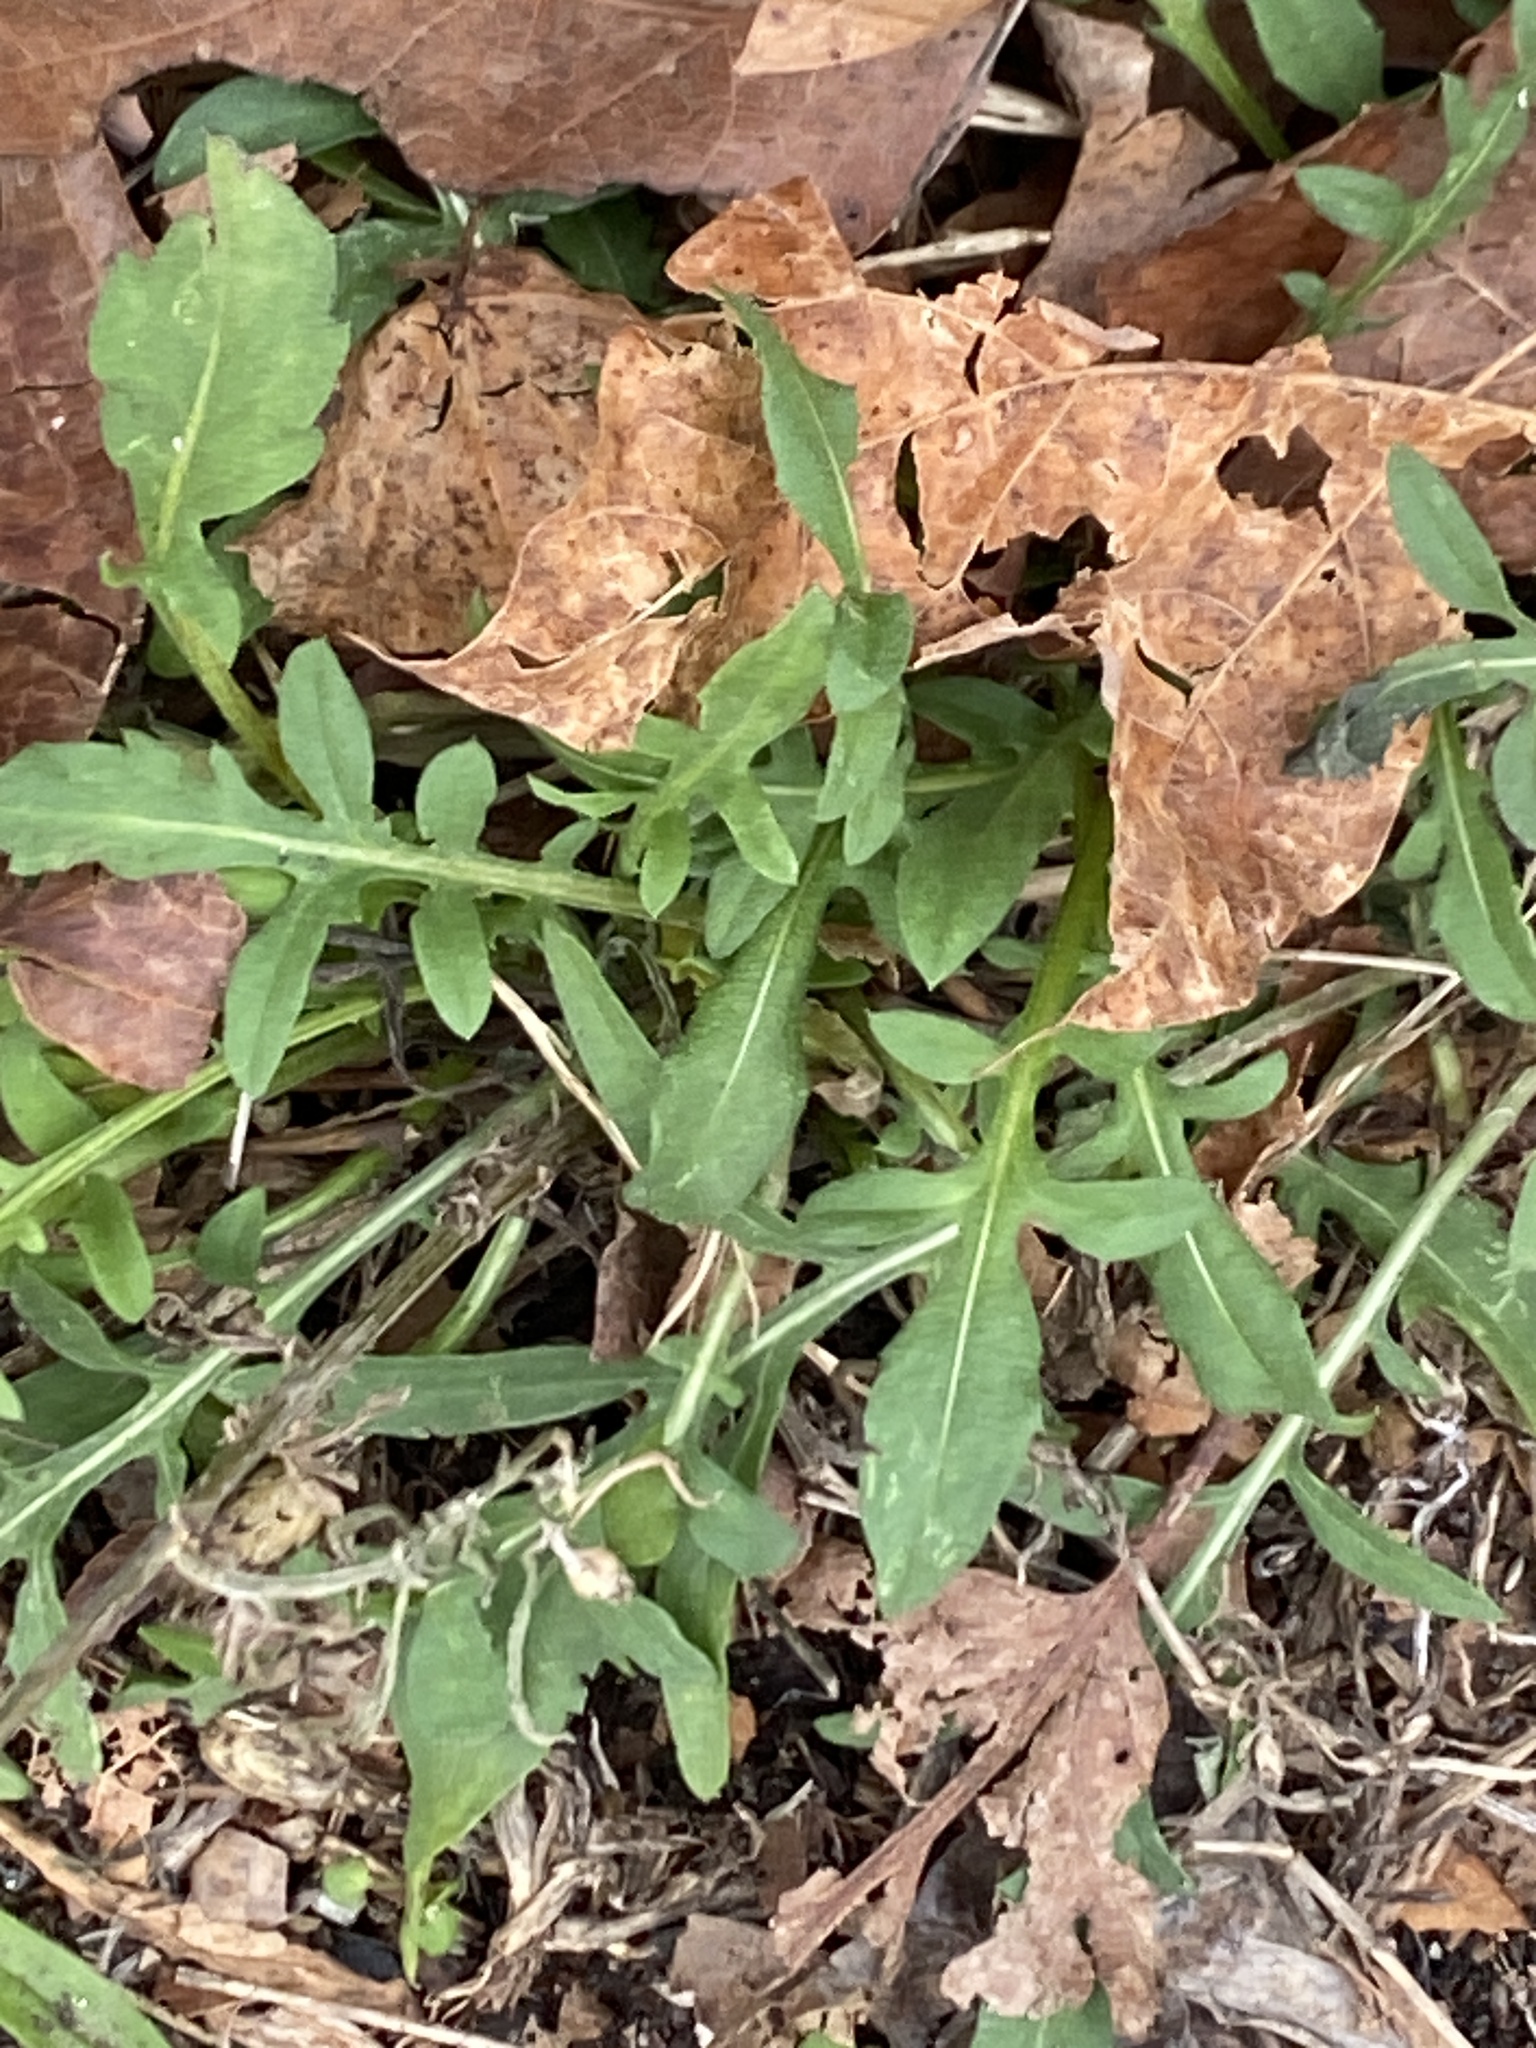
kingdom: Plantae
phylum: Tracheophyta
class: Magnoliopsida
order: Asterales
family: Asteraceae
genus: Centaurea
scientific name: Centaurea stoebe
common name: Spotted knapweed
